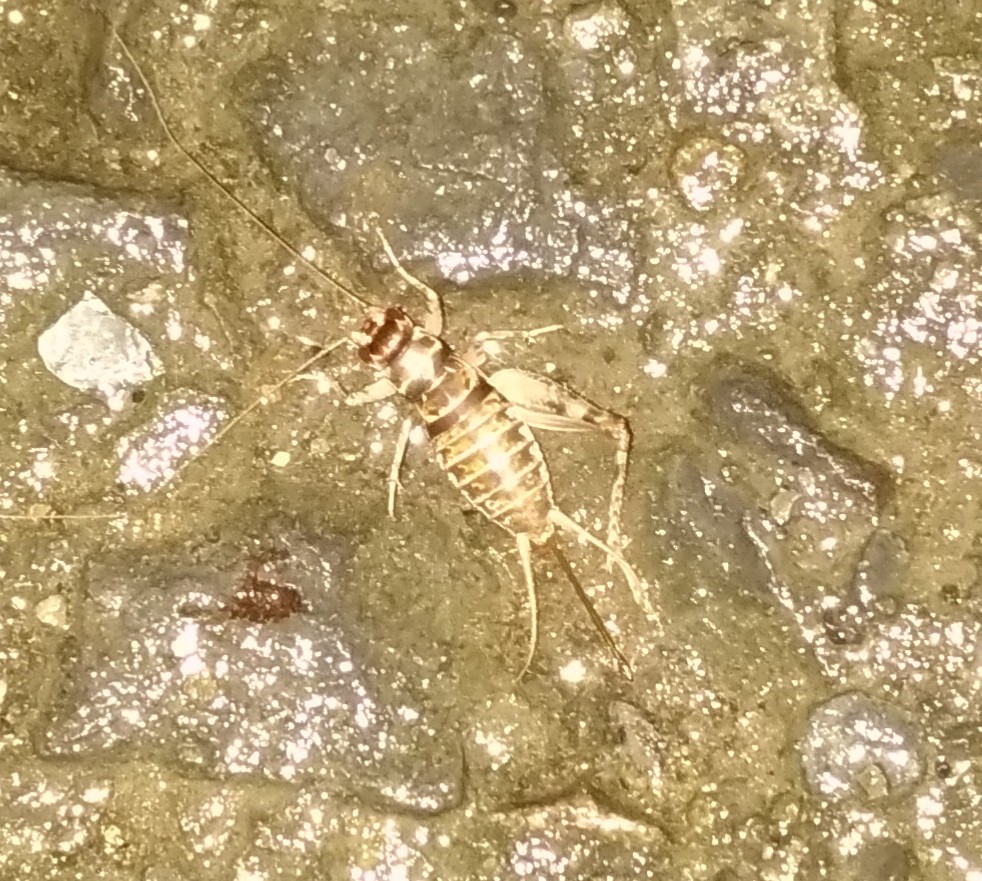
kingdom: Animalia
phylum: Arthropoda
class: Insecta
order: Orthoptera
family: Gryllidae
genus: Gryllodes
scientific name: Gryllodes sigillatus
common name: Tropical house cricket
